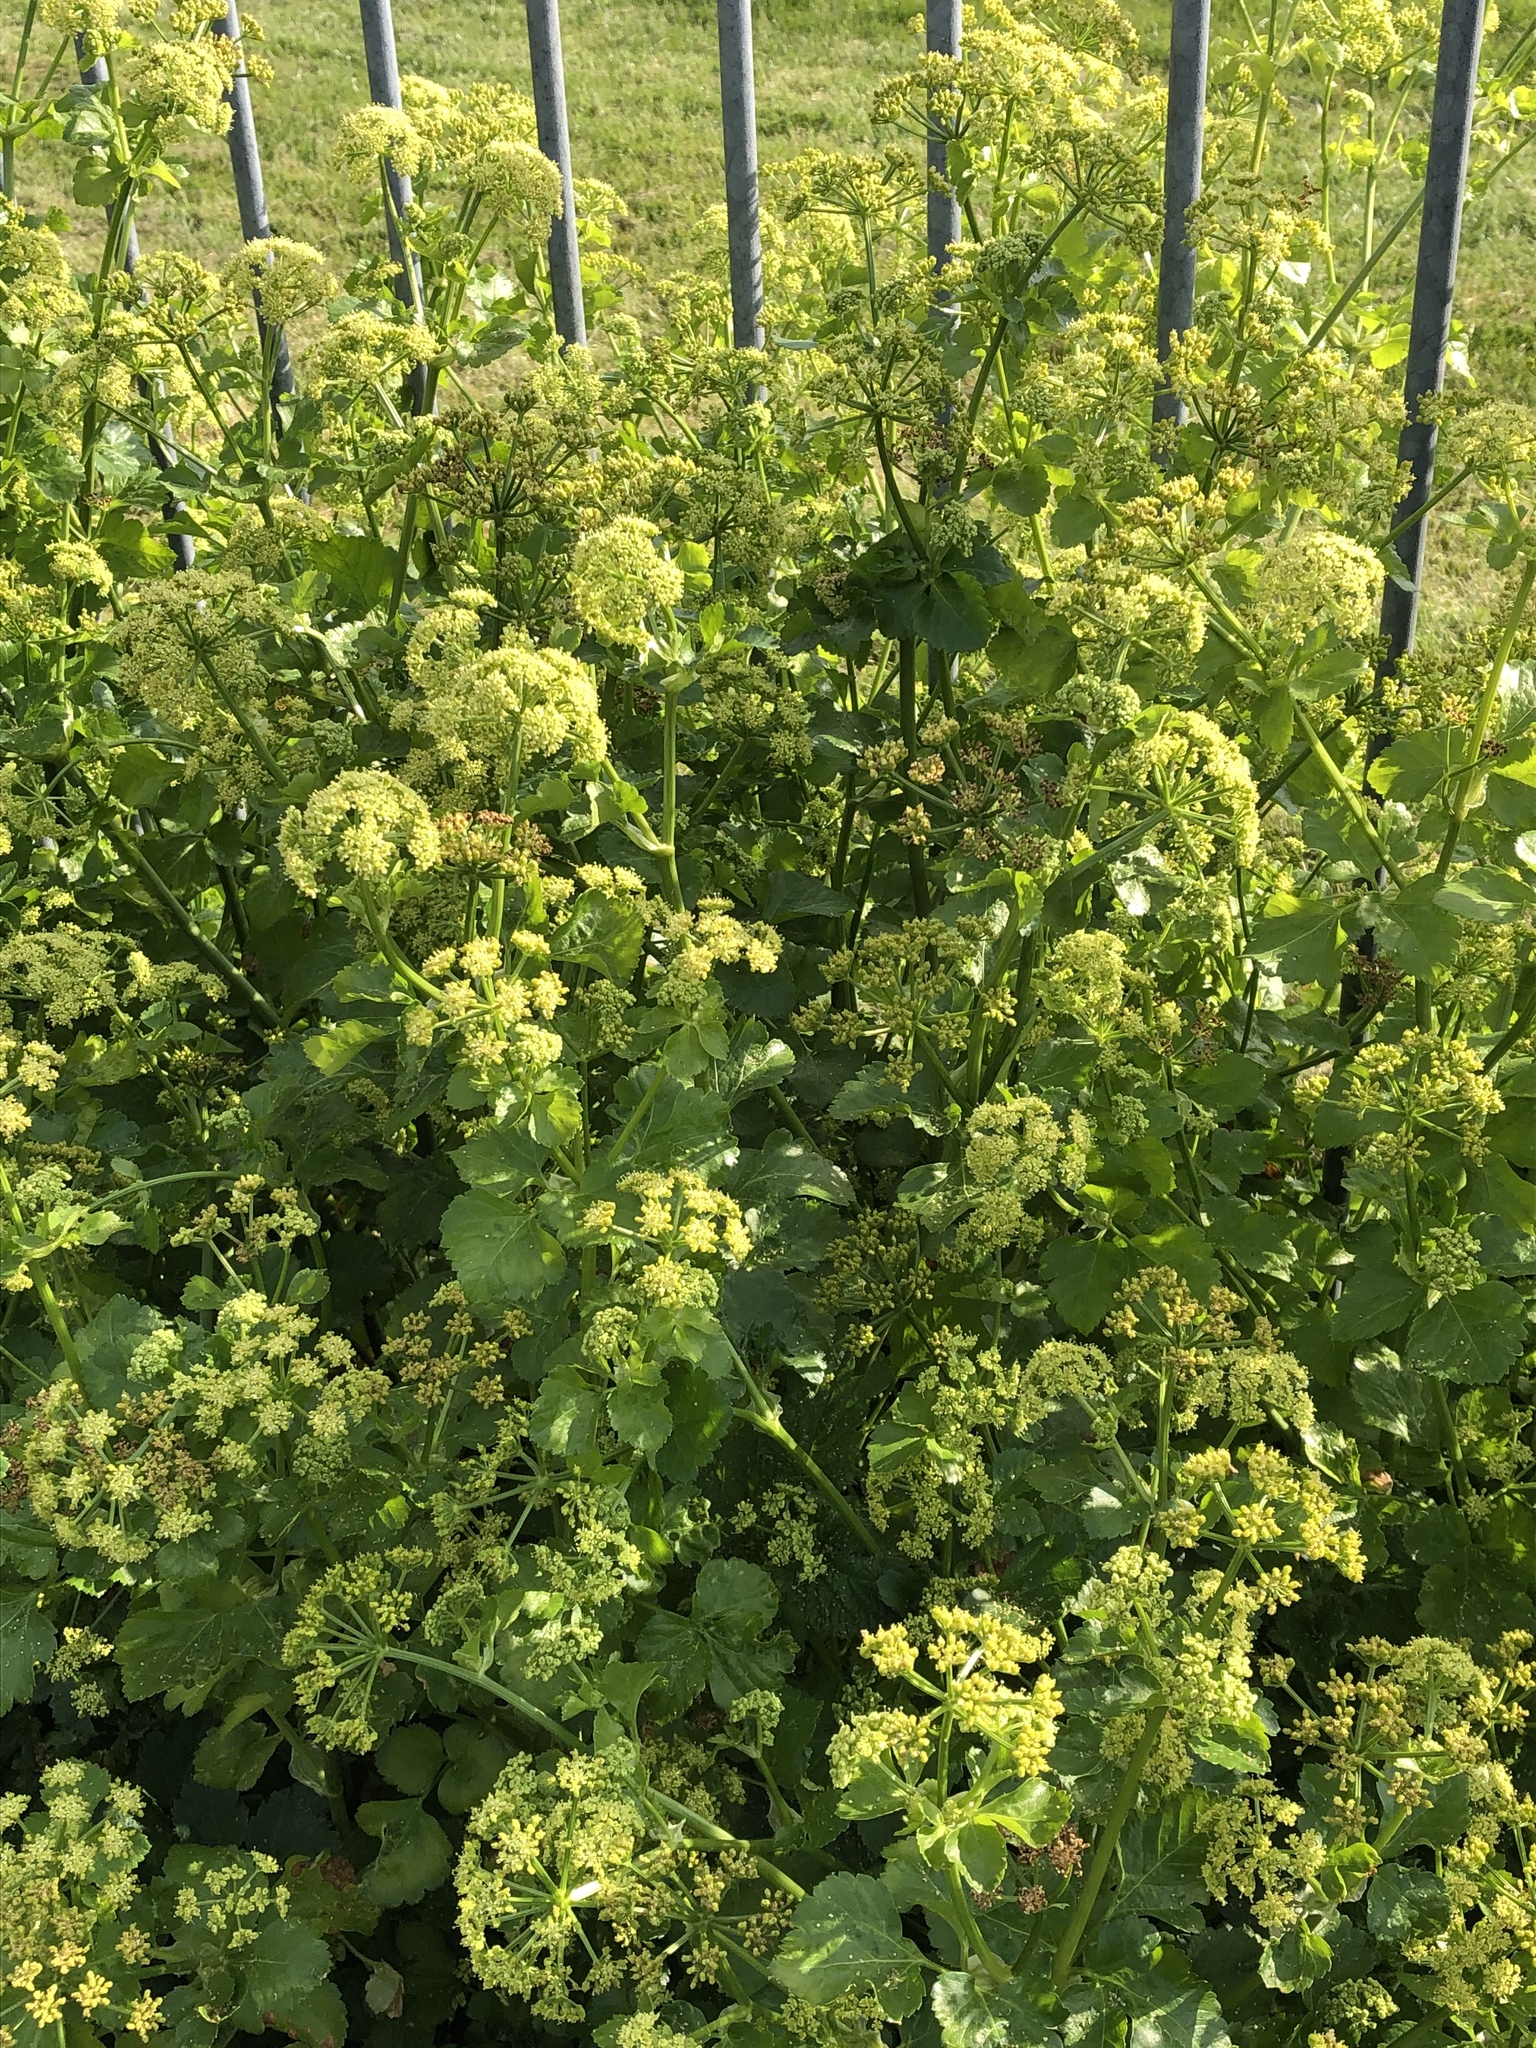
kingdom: Plantae
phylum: Tracheophyta
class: Magnoliopsida
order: Apiales
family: Apiaceae
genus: Smyrnium
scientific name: Smyrnium olusatrum
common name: Alexanders
